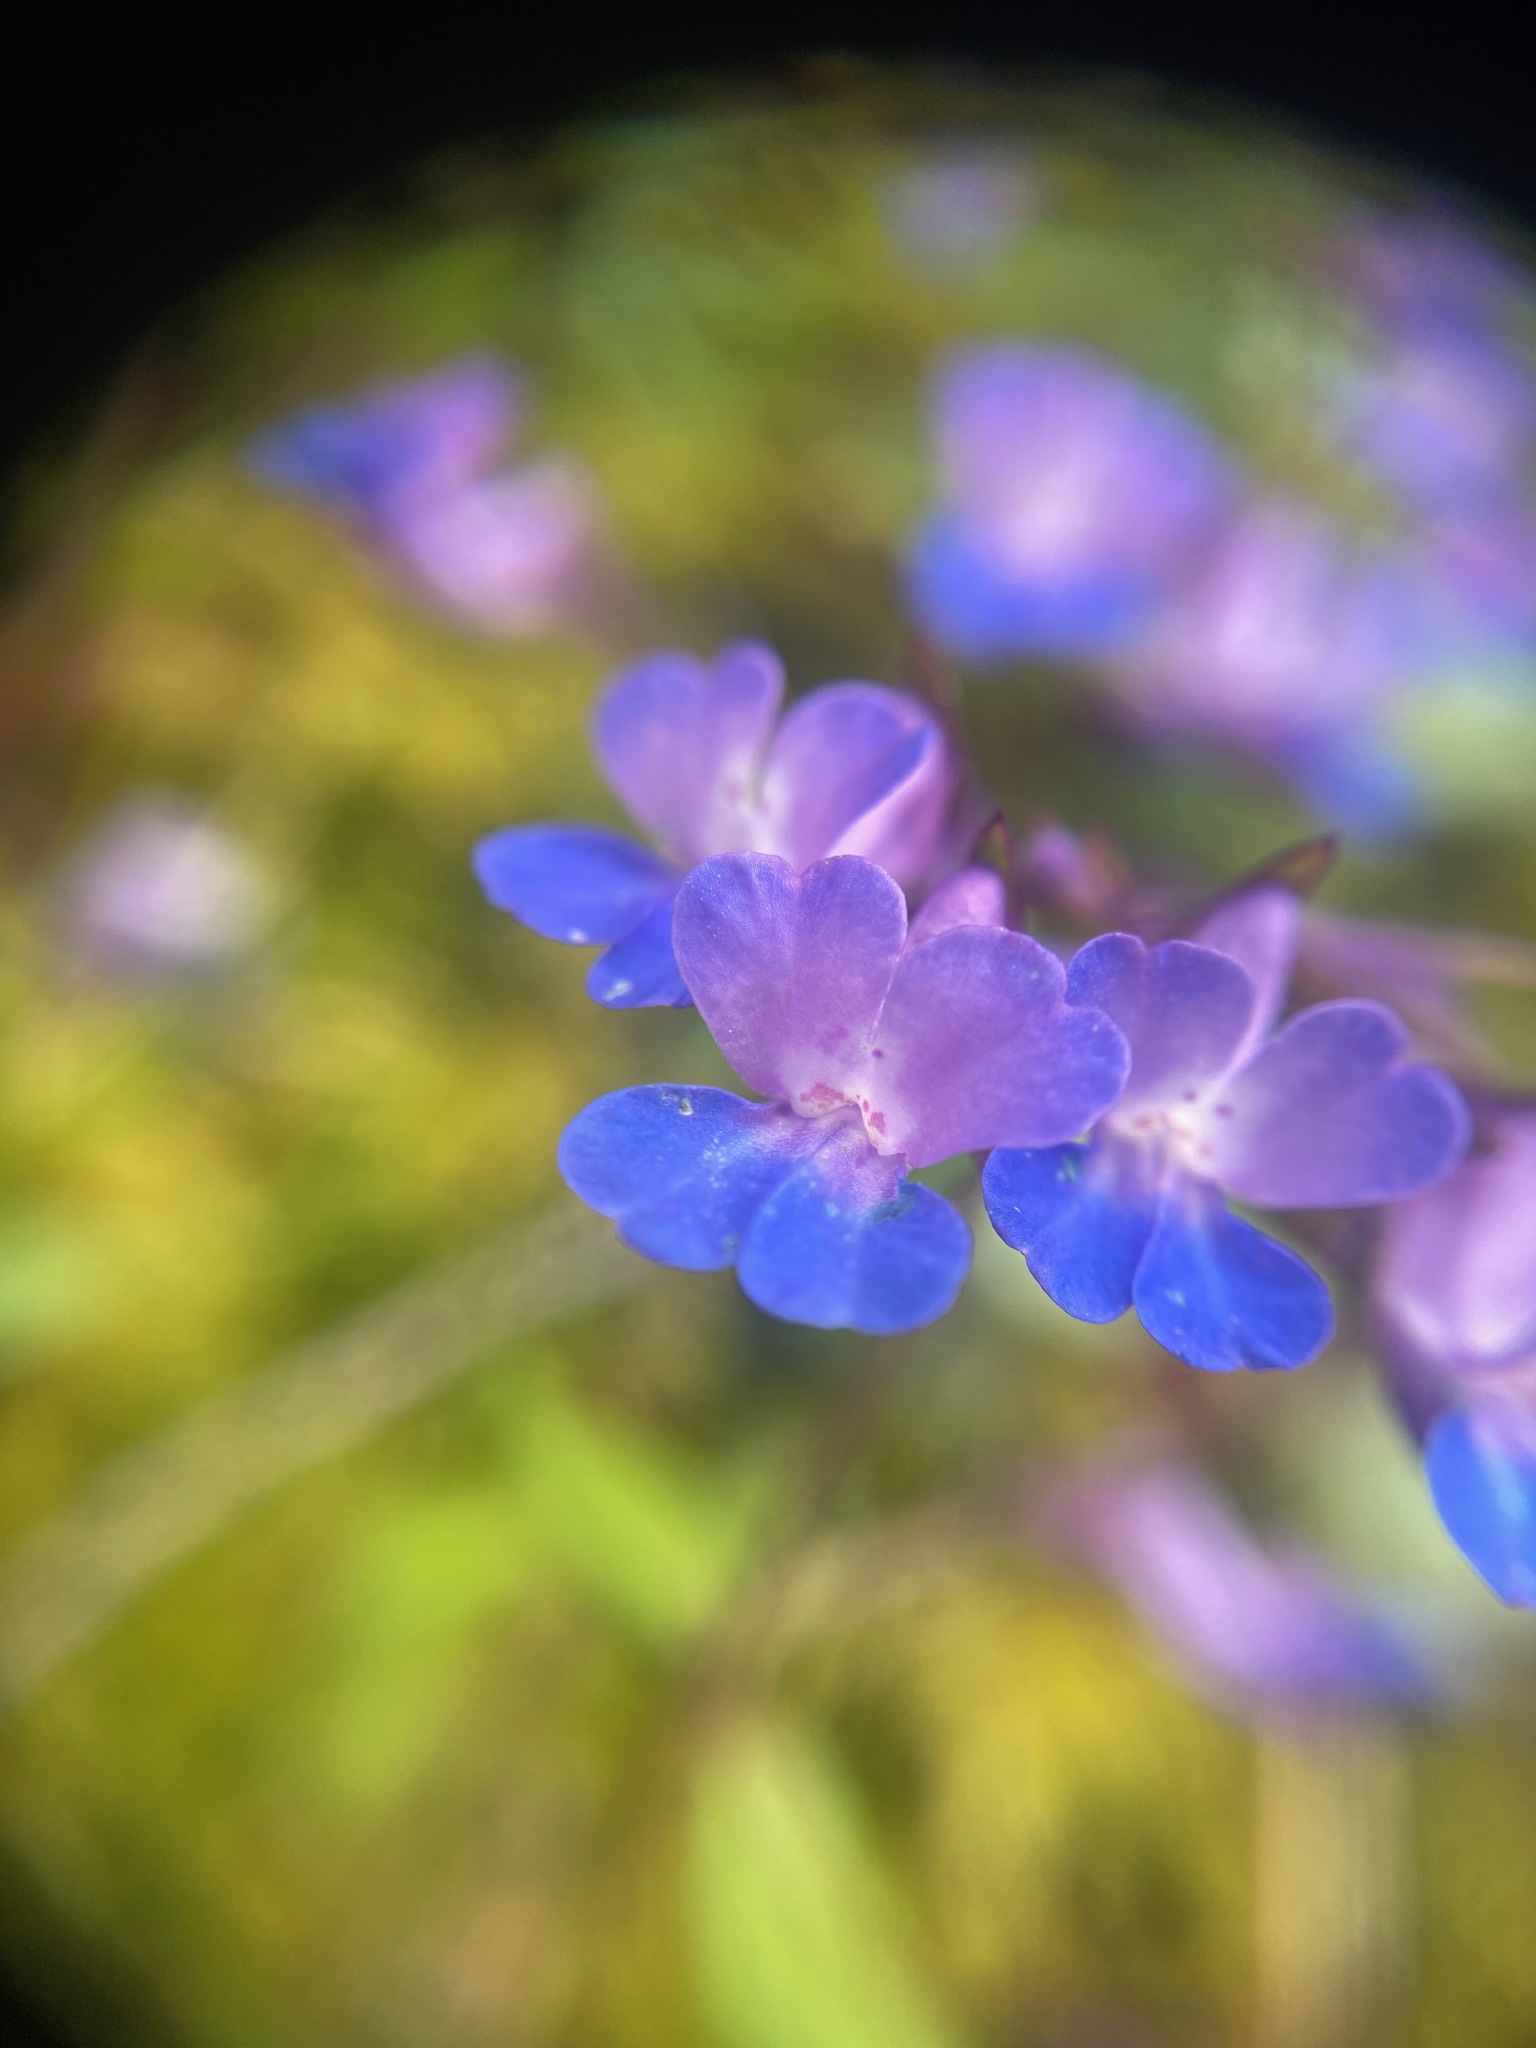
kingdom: Plantae
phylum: Tracheophyta
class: Magnoliopsida
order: Lamiales
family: Plantaginaceae
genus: Collinsia
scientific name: Collinsia grandiflora
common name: Large-flower blue-eyed-mary
